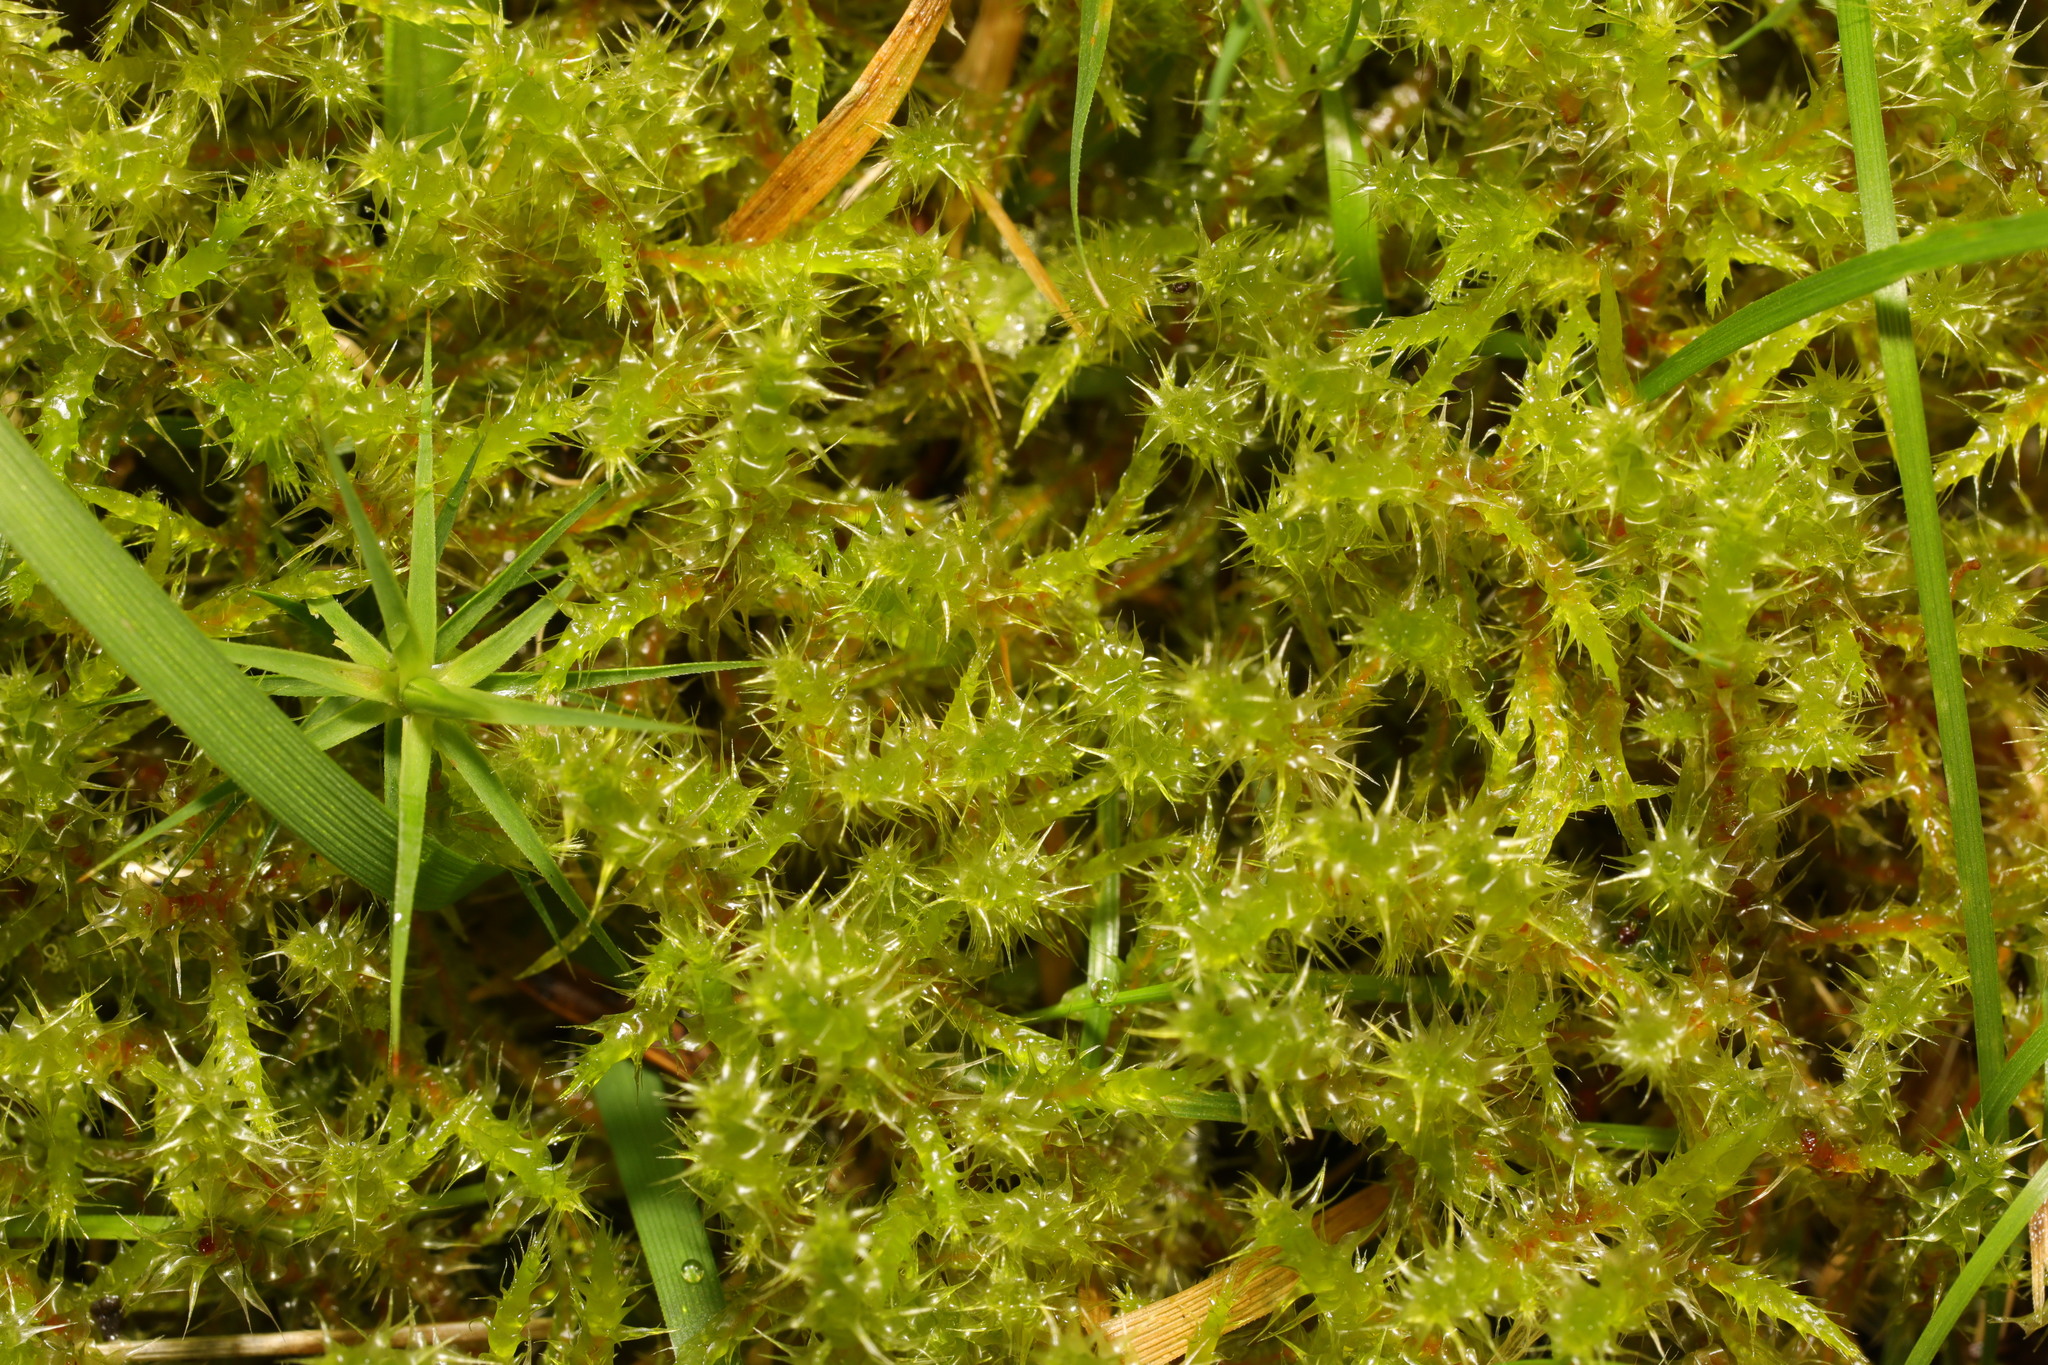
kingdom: Plantae
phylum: Bryophyta
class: Bryopsida
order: Hypnales
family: Hylocomiaceae
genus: Rhytidiadelphus
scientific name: Rhytidiadelphus squarrosus
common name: Springy turf-moss
